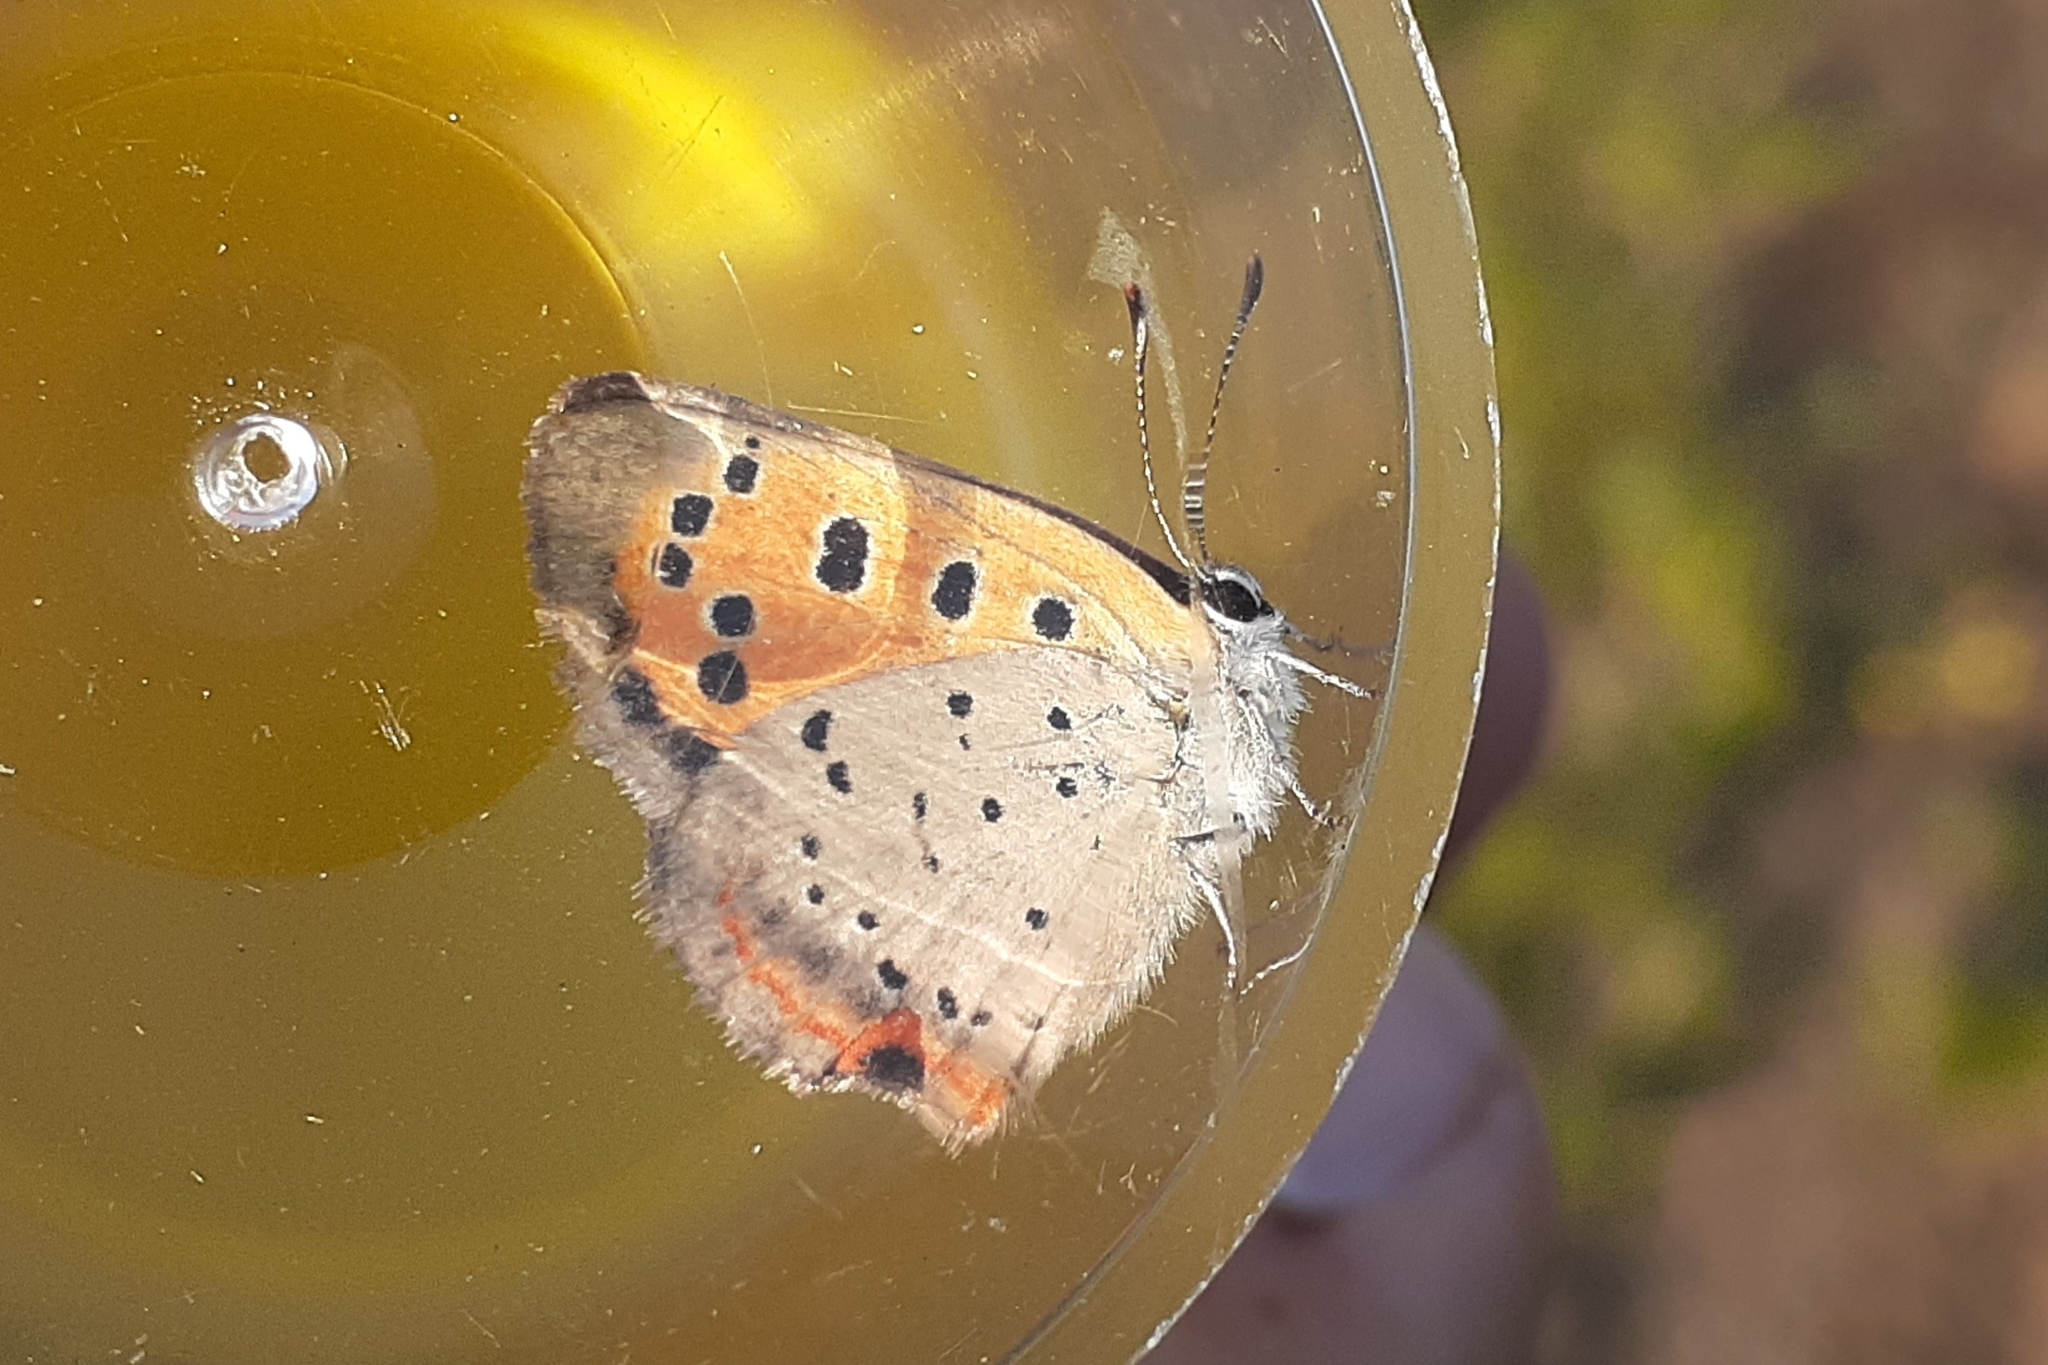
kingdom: Animalia
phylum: Arthropoda
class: Insecta
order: Lepidoptera
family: Lycaenidae
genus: Lycaena
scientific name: Lycaena hypophlaeas
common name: American copper
